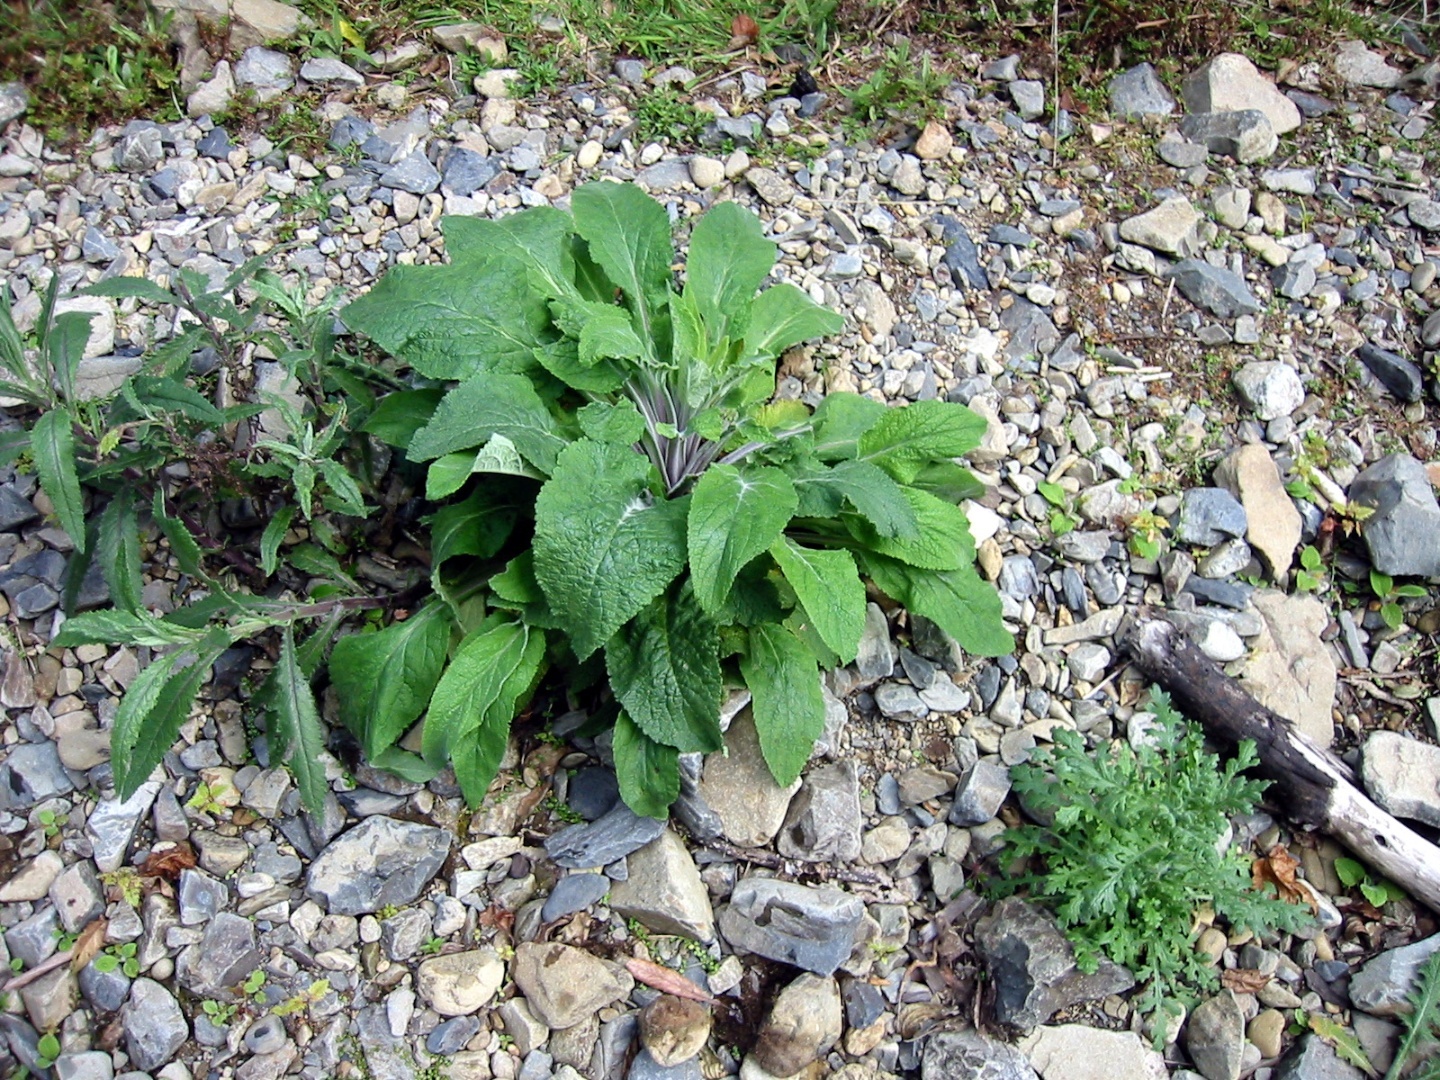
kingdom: Plantae
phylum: Tracheophyta
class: Magnoliopsida
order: Lamiales
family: Plantaginaceae
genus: Digitalis
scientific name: Digitalis purpurea
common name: Foxglove
